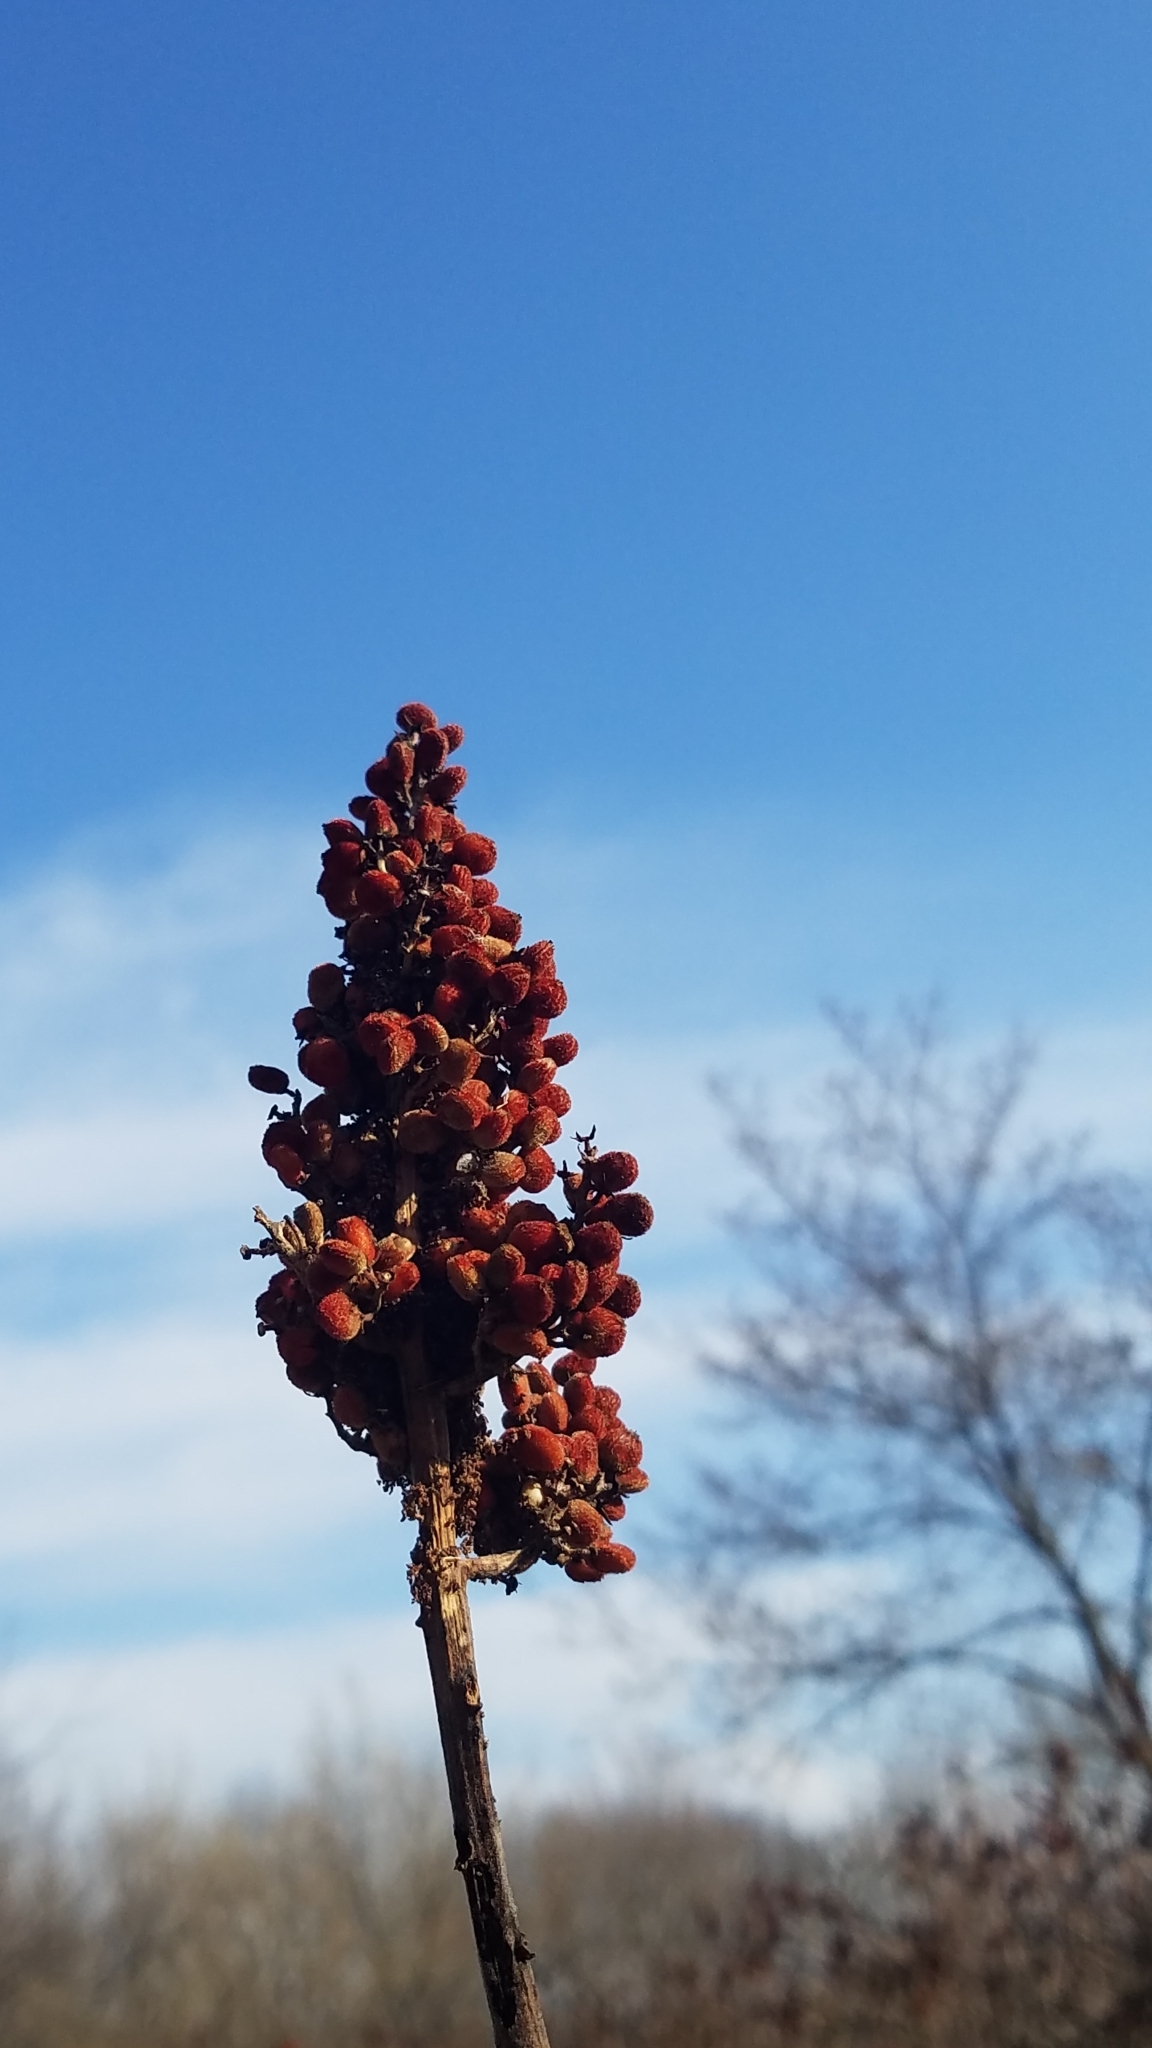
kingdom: Plantae
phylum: Tracheophyta
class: Magnoliopsida
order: Sapindales
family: Anacardiaceae
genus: Rhus
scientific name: Rhus glabra
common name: Scarlet sumac
